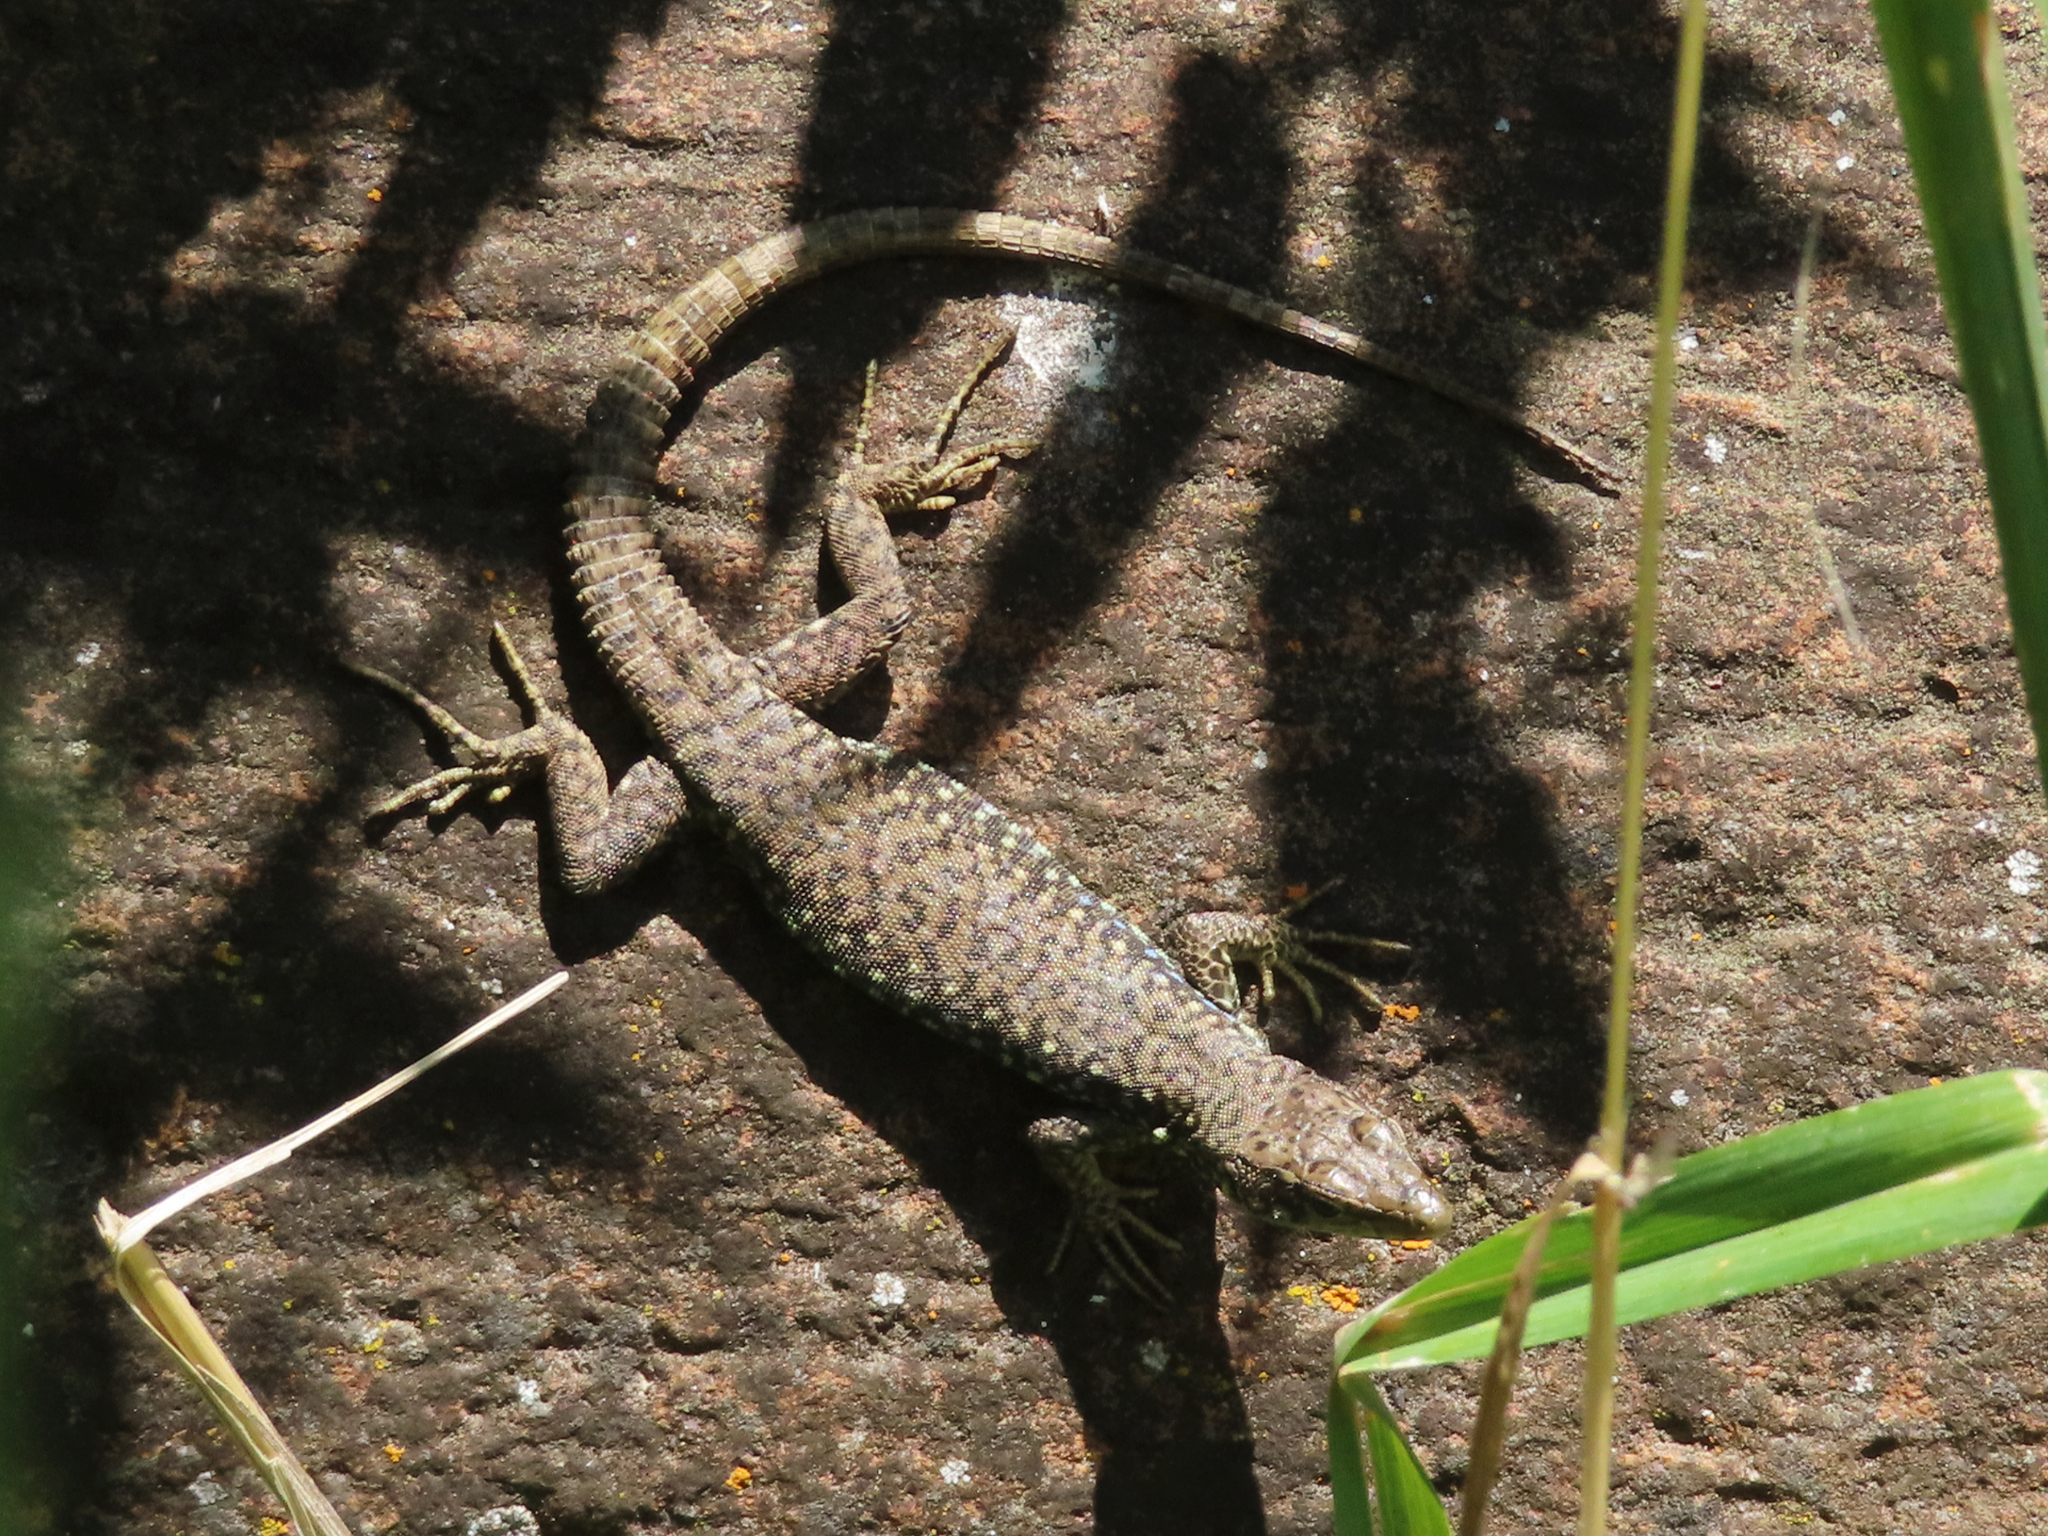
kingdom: Animalia
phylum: Chordata
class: Squamata
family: Lacertidae
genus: Darevskia
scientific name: Darevskia
